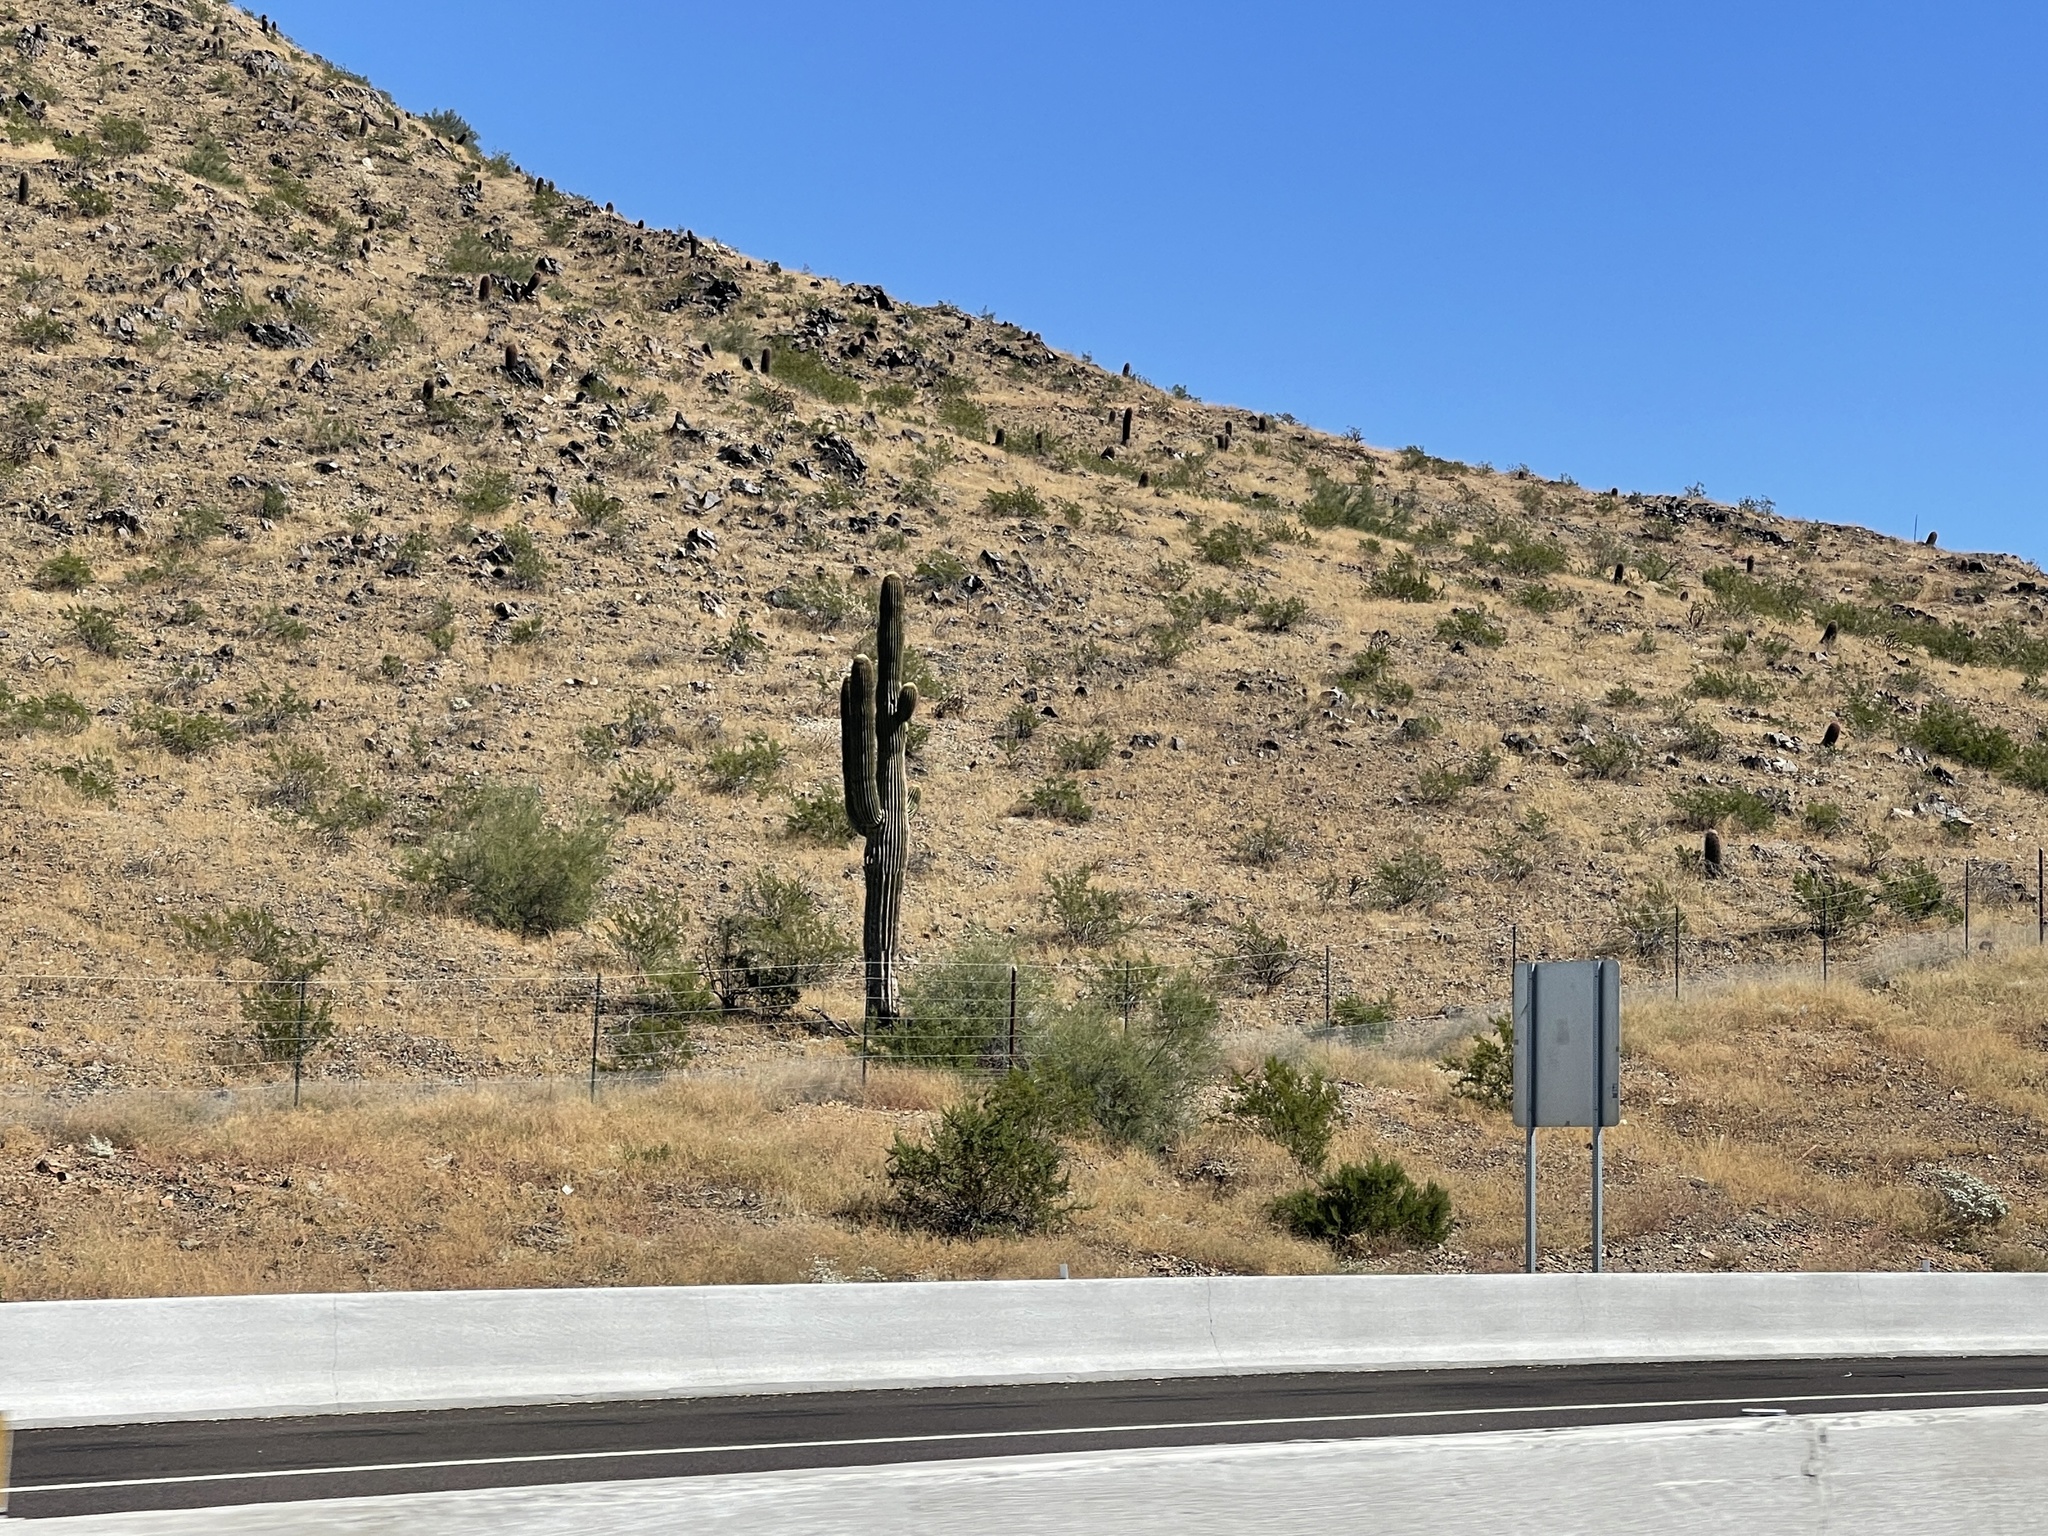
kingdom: Plantae
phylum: Tracheophyta
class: Magnoliopsida
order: Zygophyllales
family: Zygophyllaceae
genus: Larrea
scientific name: Larrea tridentata
